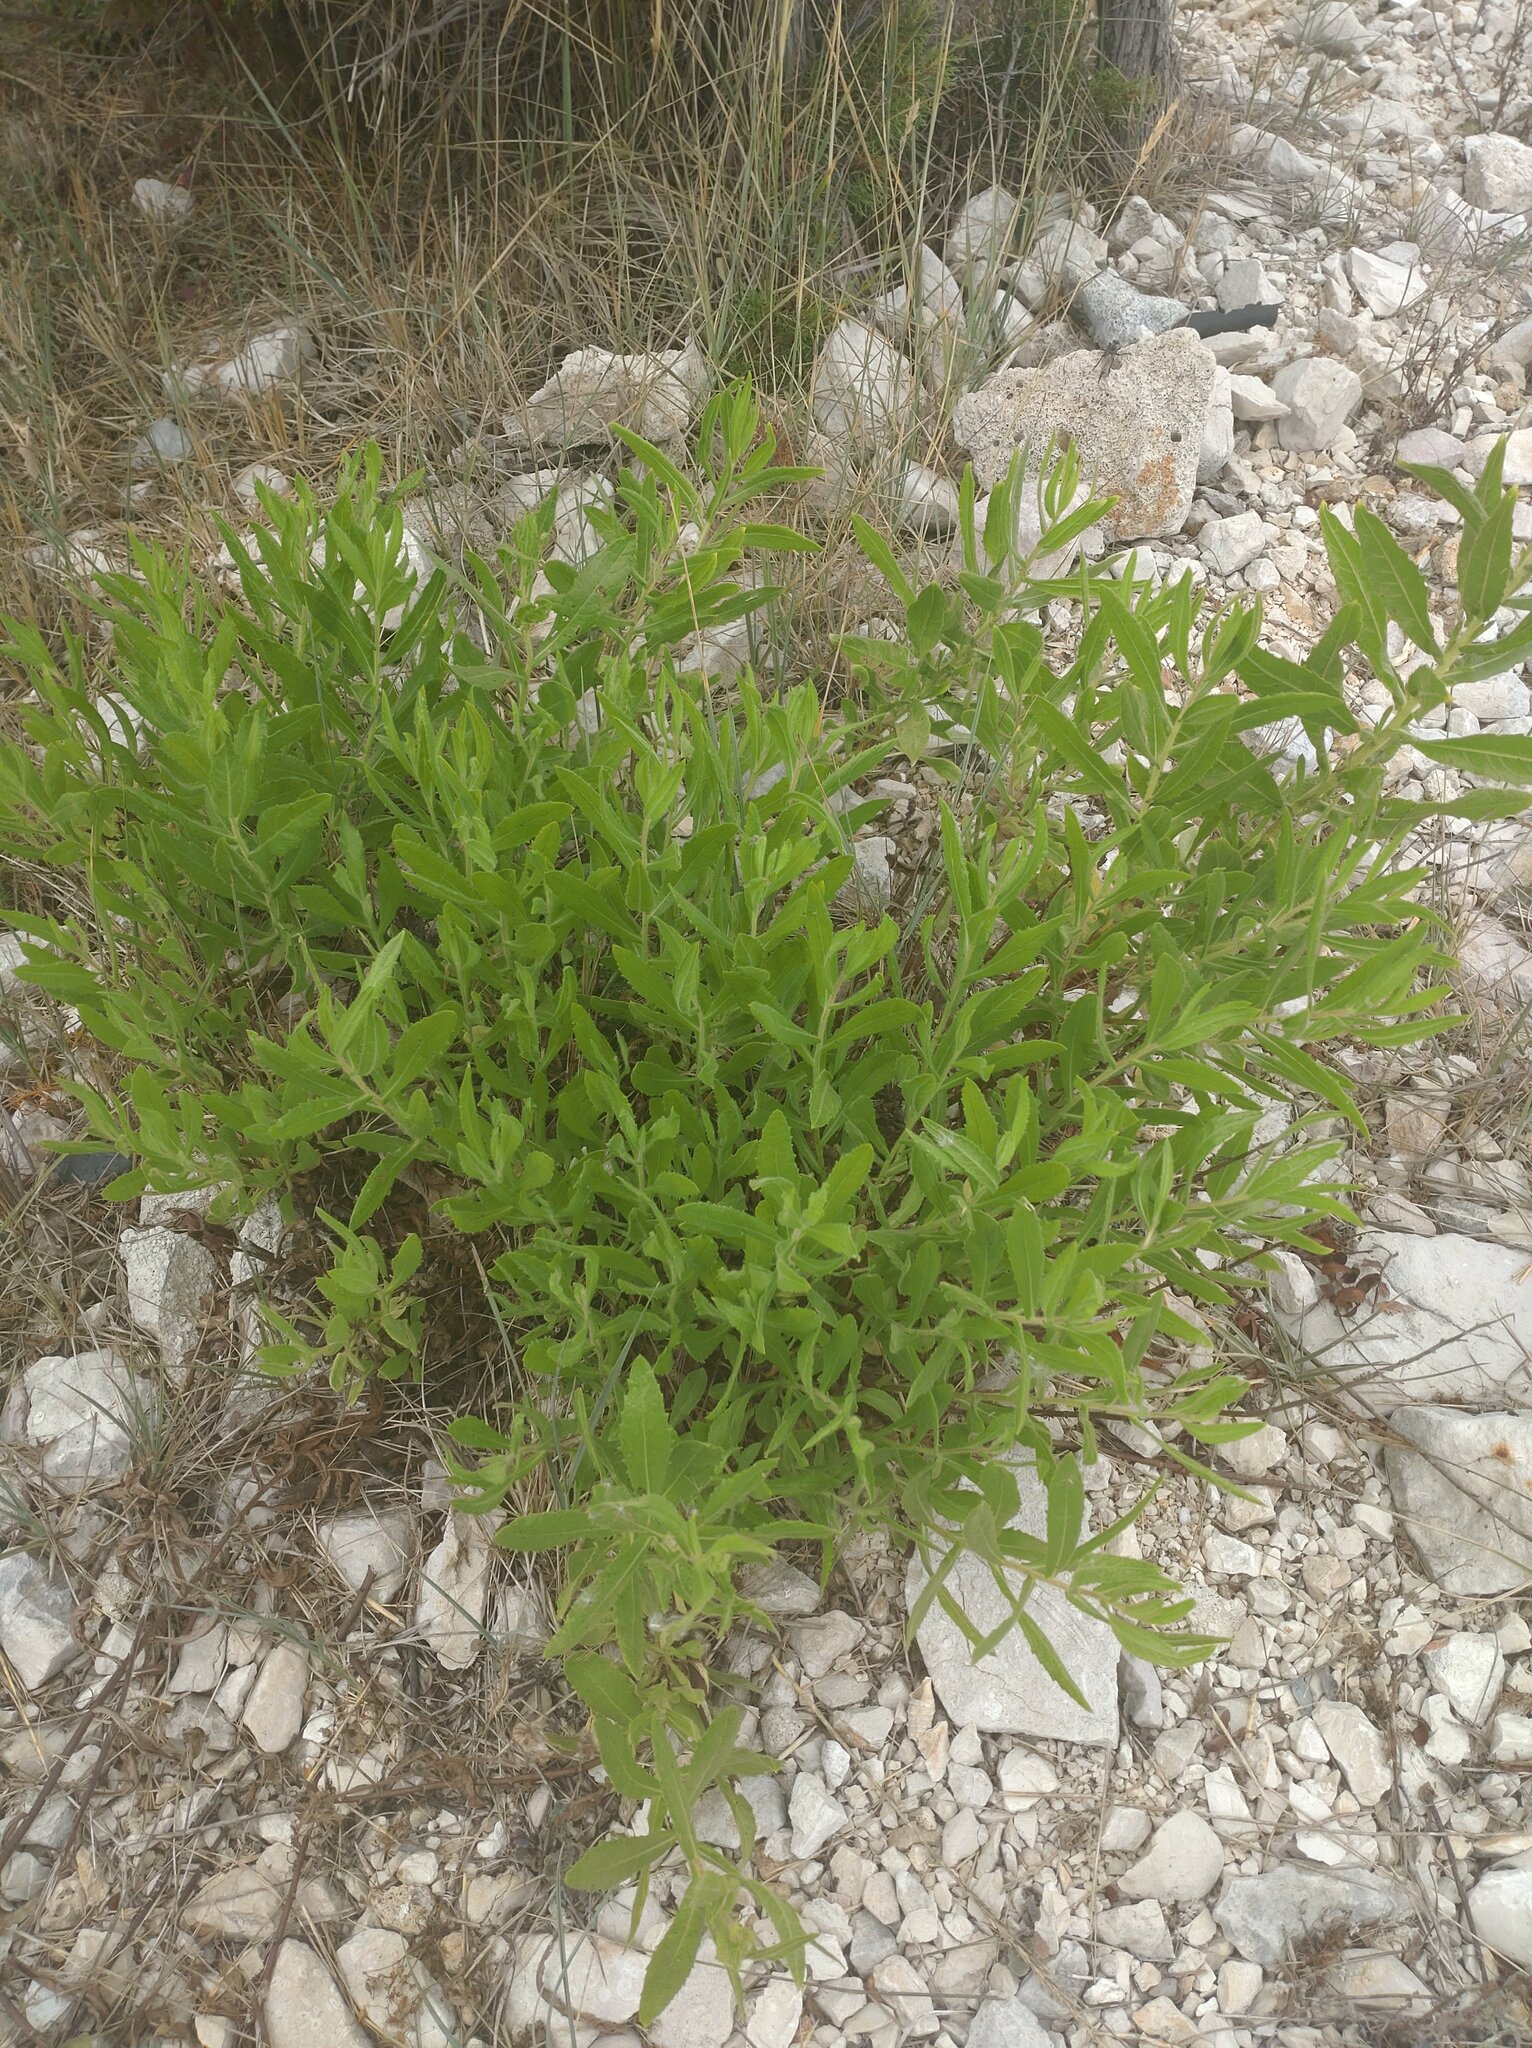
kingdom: Plantae
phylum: Tracheophyta
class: Magnoliopsida
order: Asterales
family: Asteraceae
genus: Dittrichia
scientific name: Dittrichia viscosa
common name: Woody fleabane
